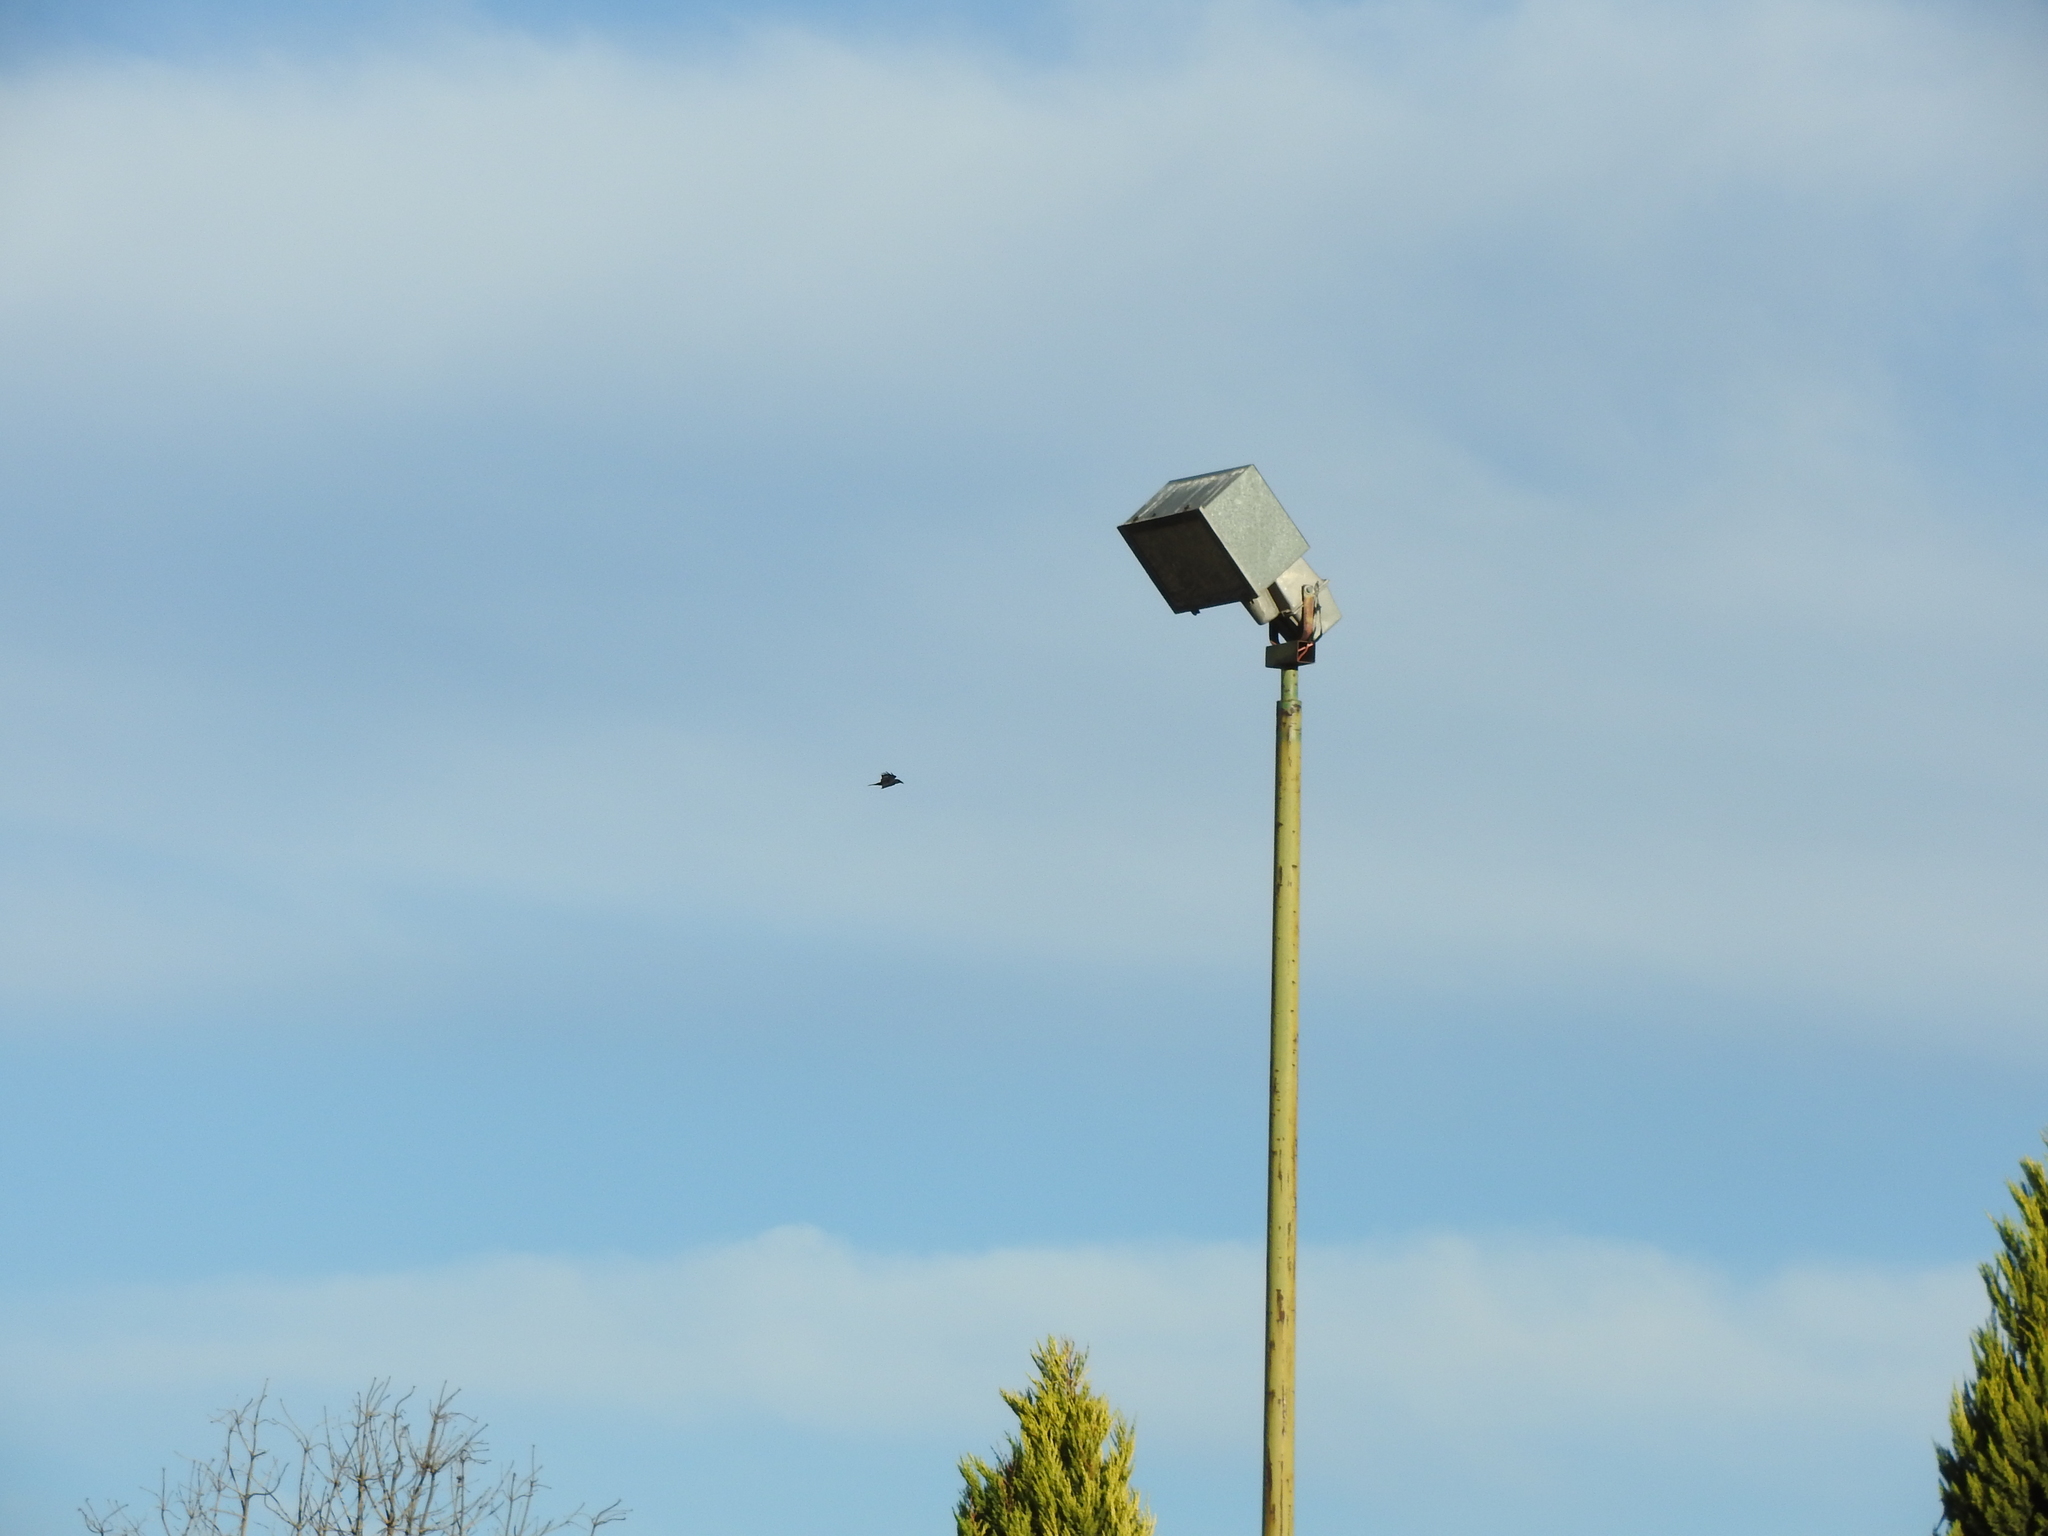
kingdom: Animalia
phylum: Chordata
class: Aves
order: Passeriformes
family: Corvidae
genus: Corvus
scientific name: Corvus corax
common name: Common raven
